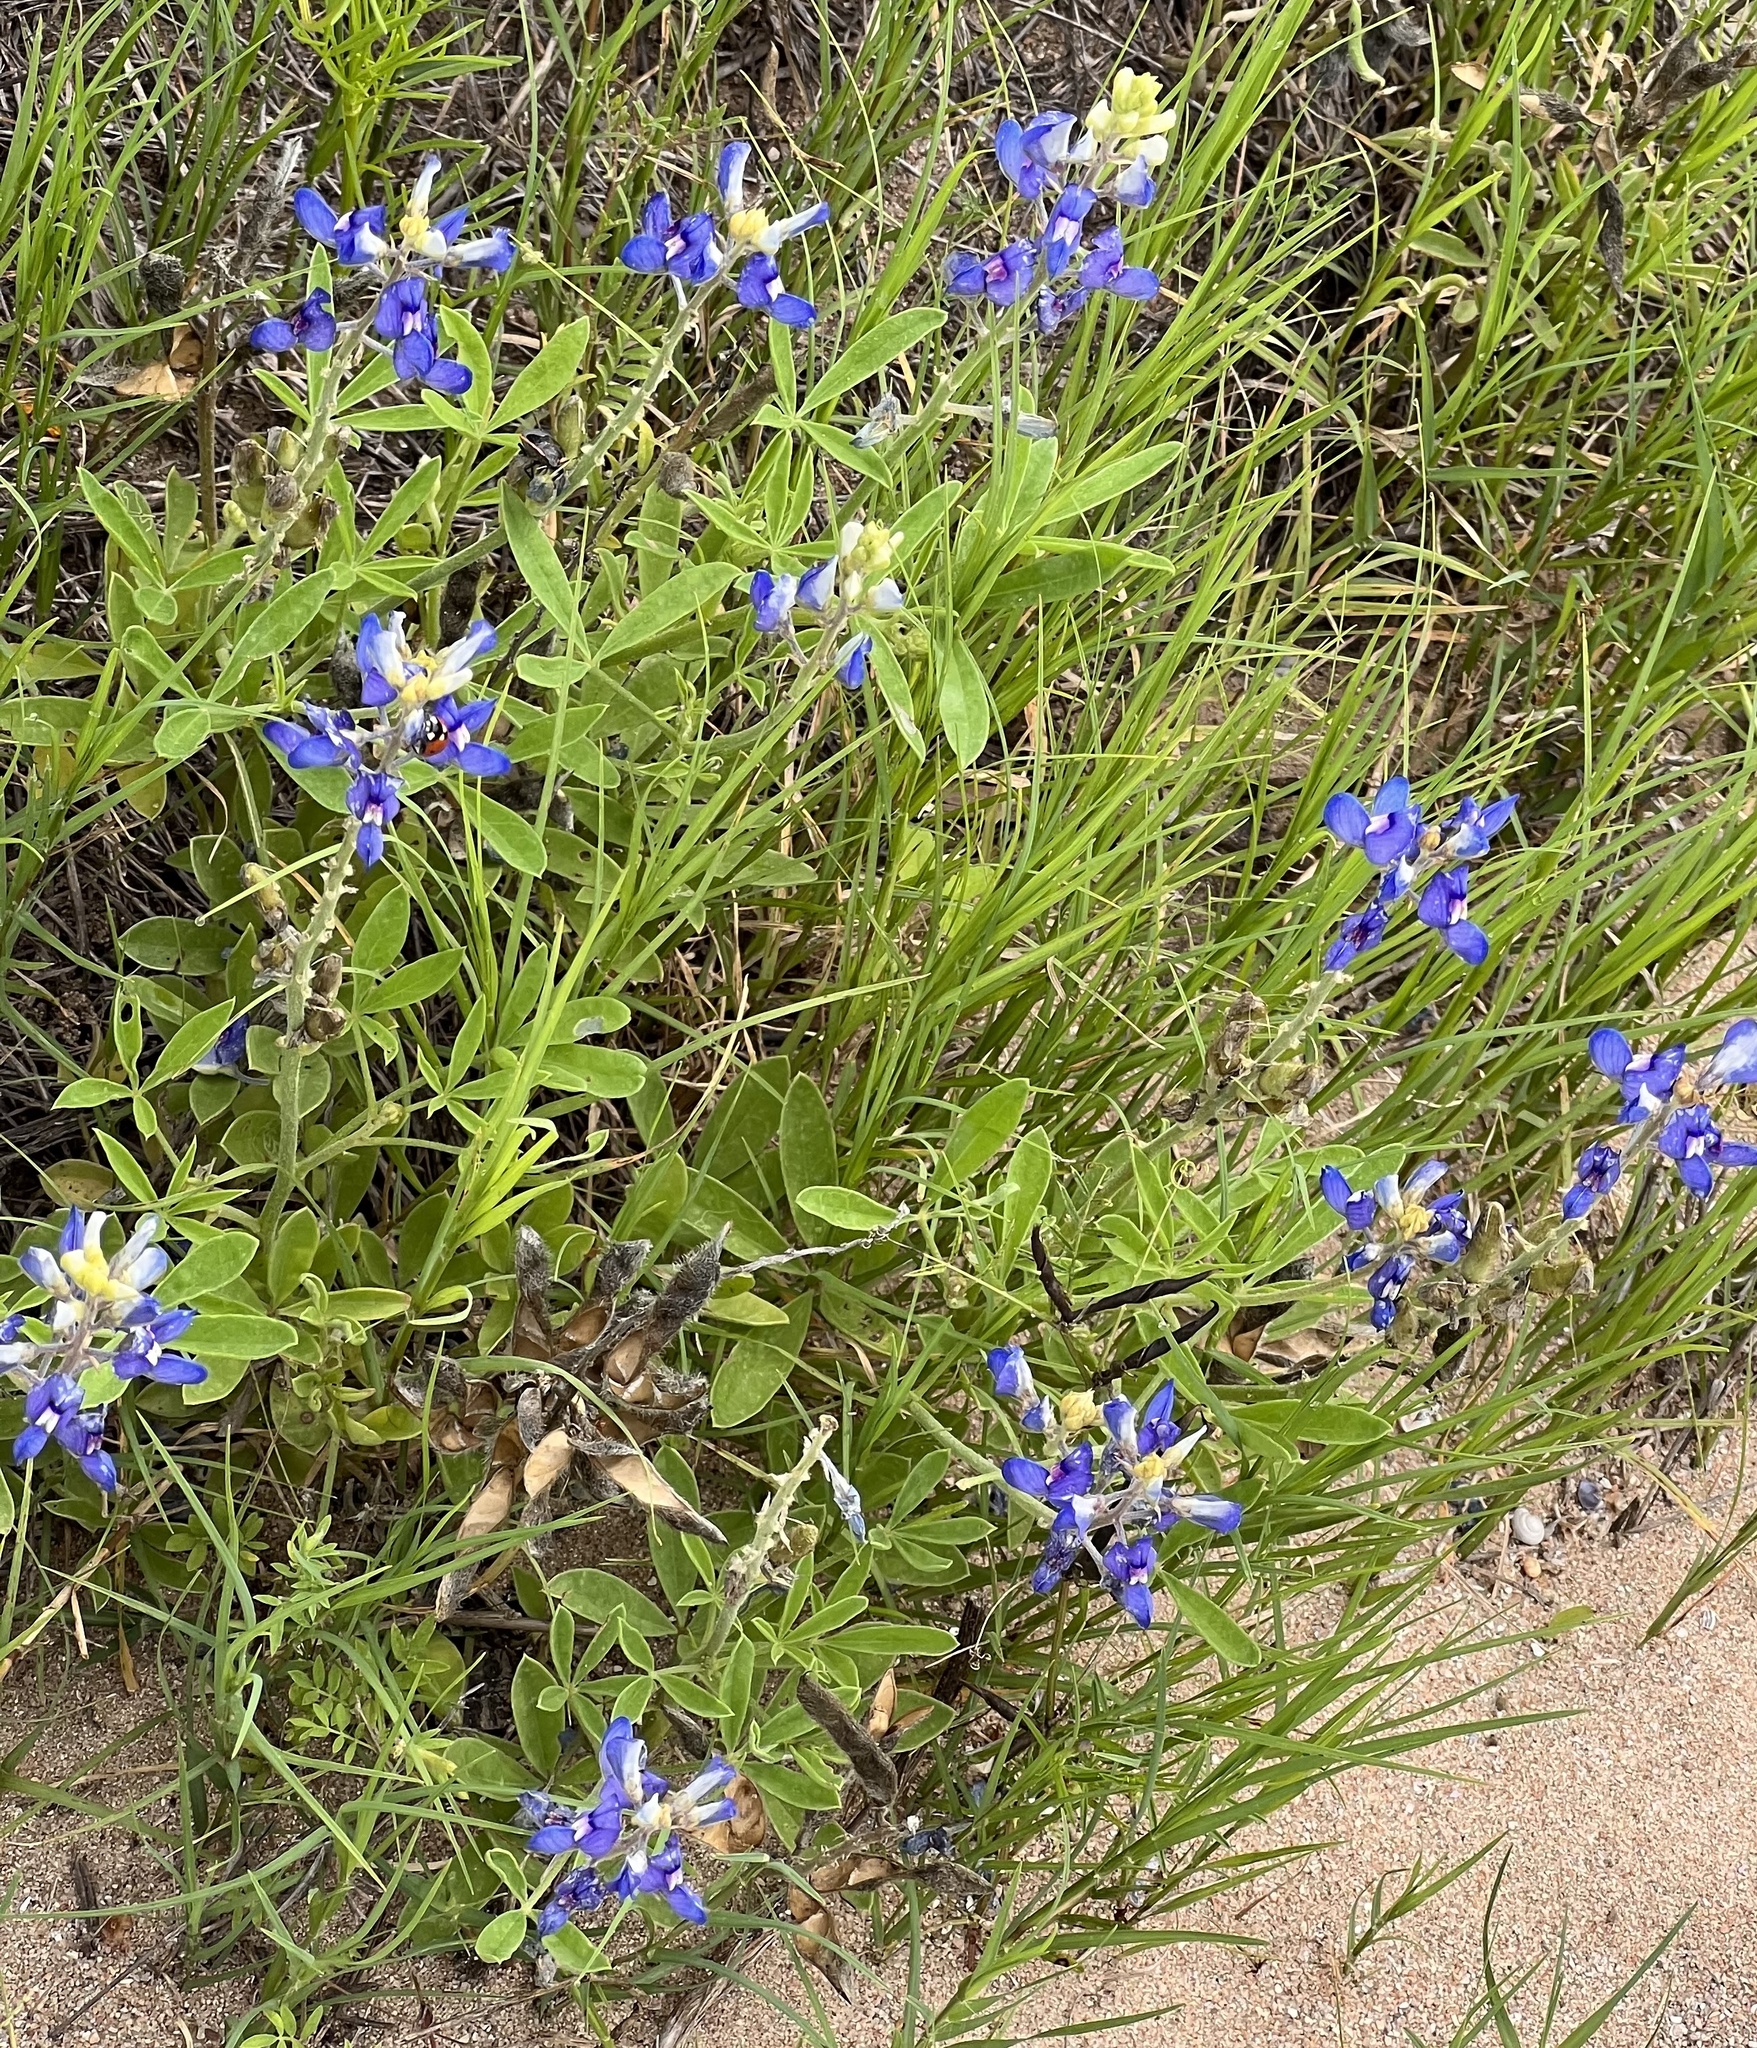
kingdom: Plantae
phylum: Tracheophyta
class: Magnoliopsida
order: Fabales
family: Fabaceae
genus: Lupinus
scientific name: Lupinus texensis
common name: Texas bluebonnet
